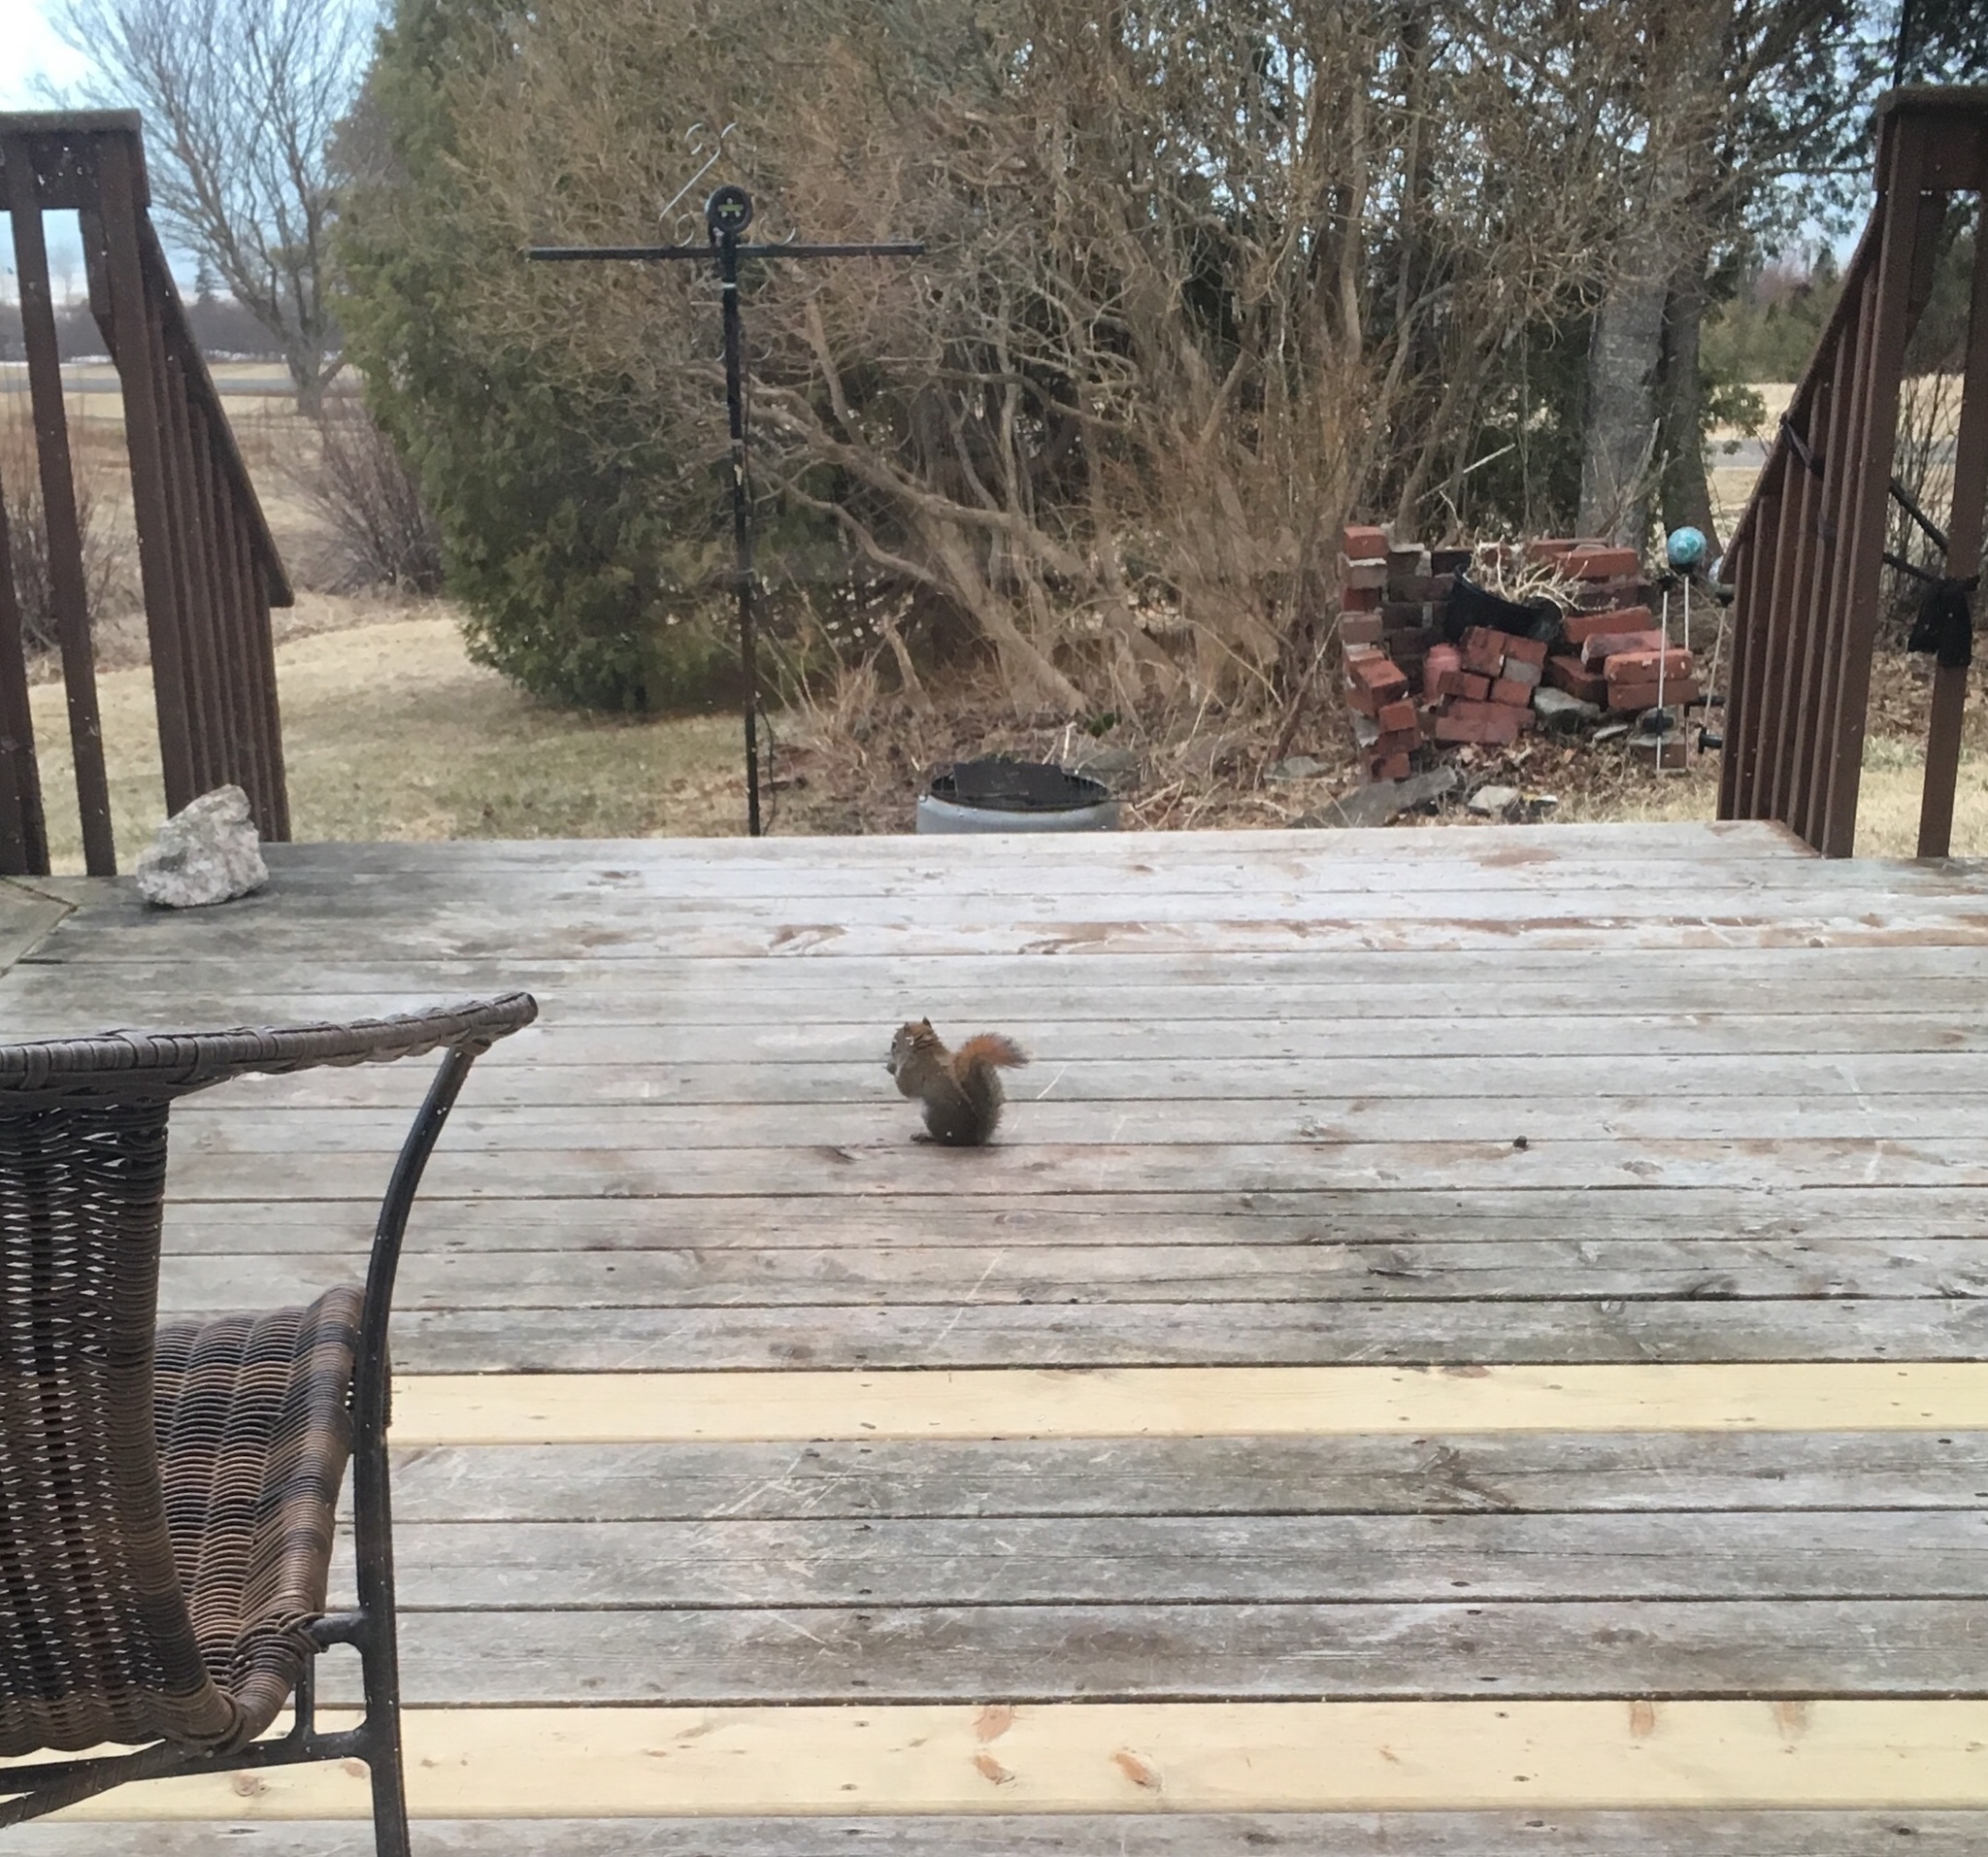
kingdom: Animalia
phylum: Chordata
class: Mammalia
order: Rodentia
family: Sciuridae
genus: Tamiasciurus
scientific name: Tamiasciurus hudsonicus
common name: Red squirrel
